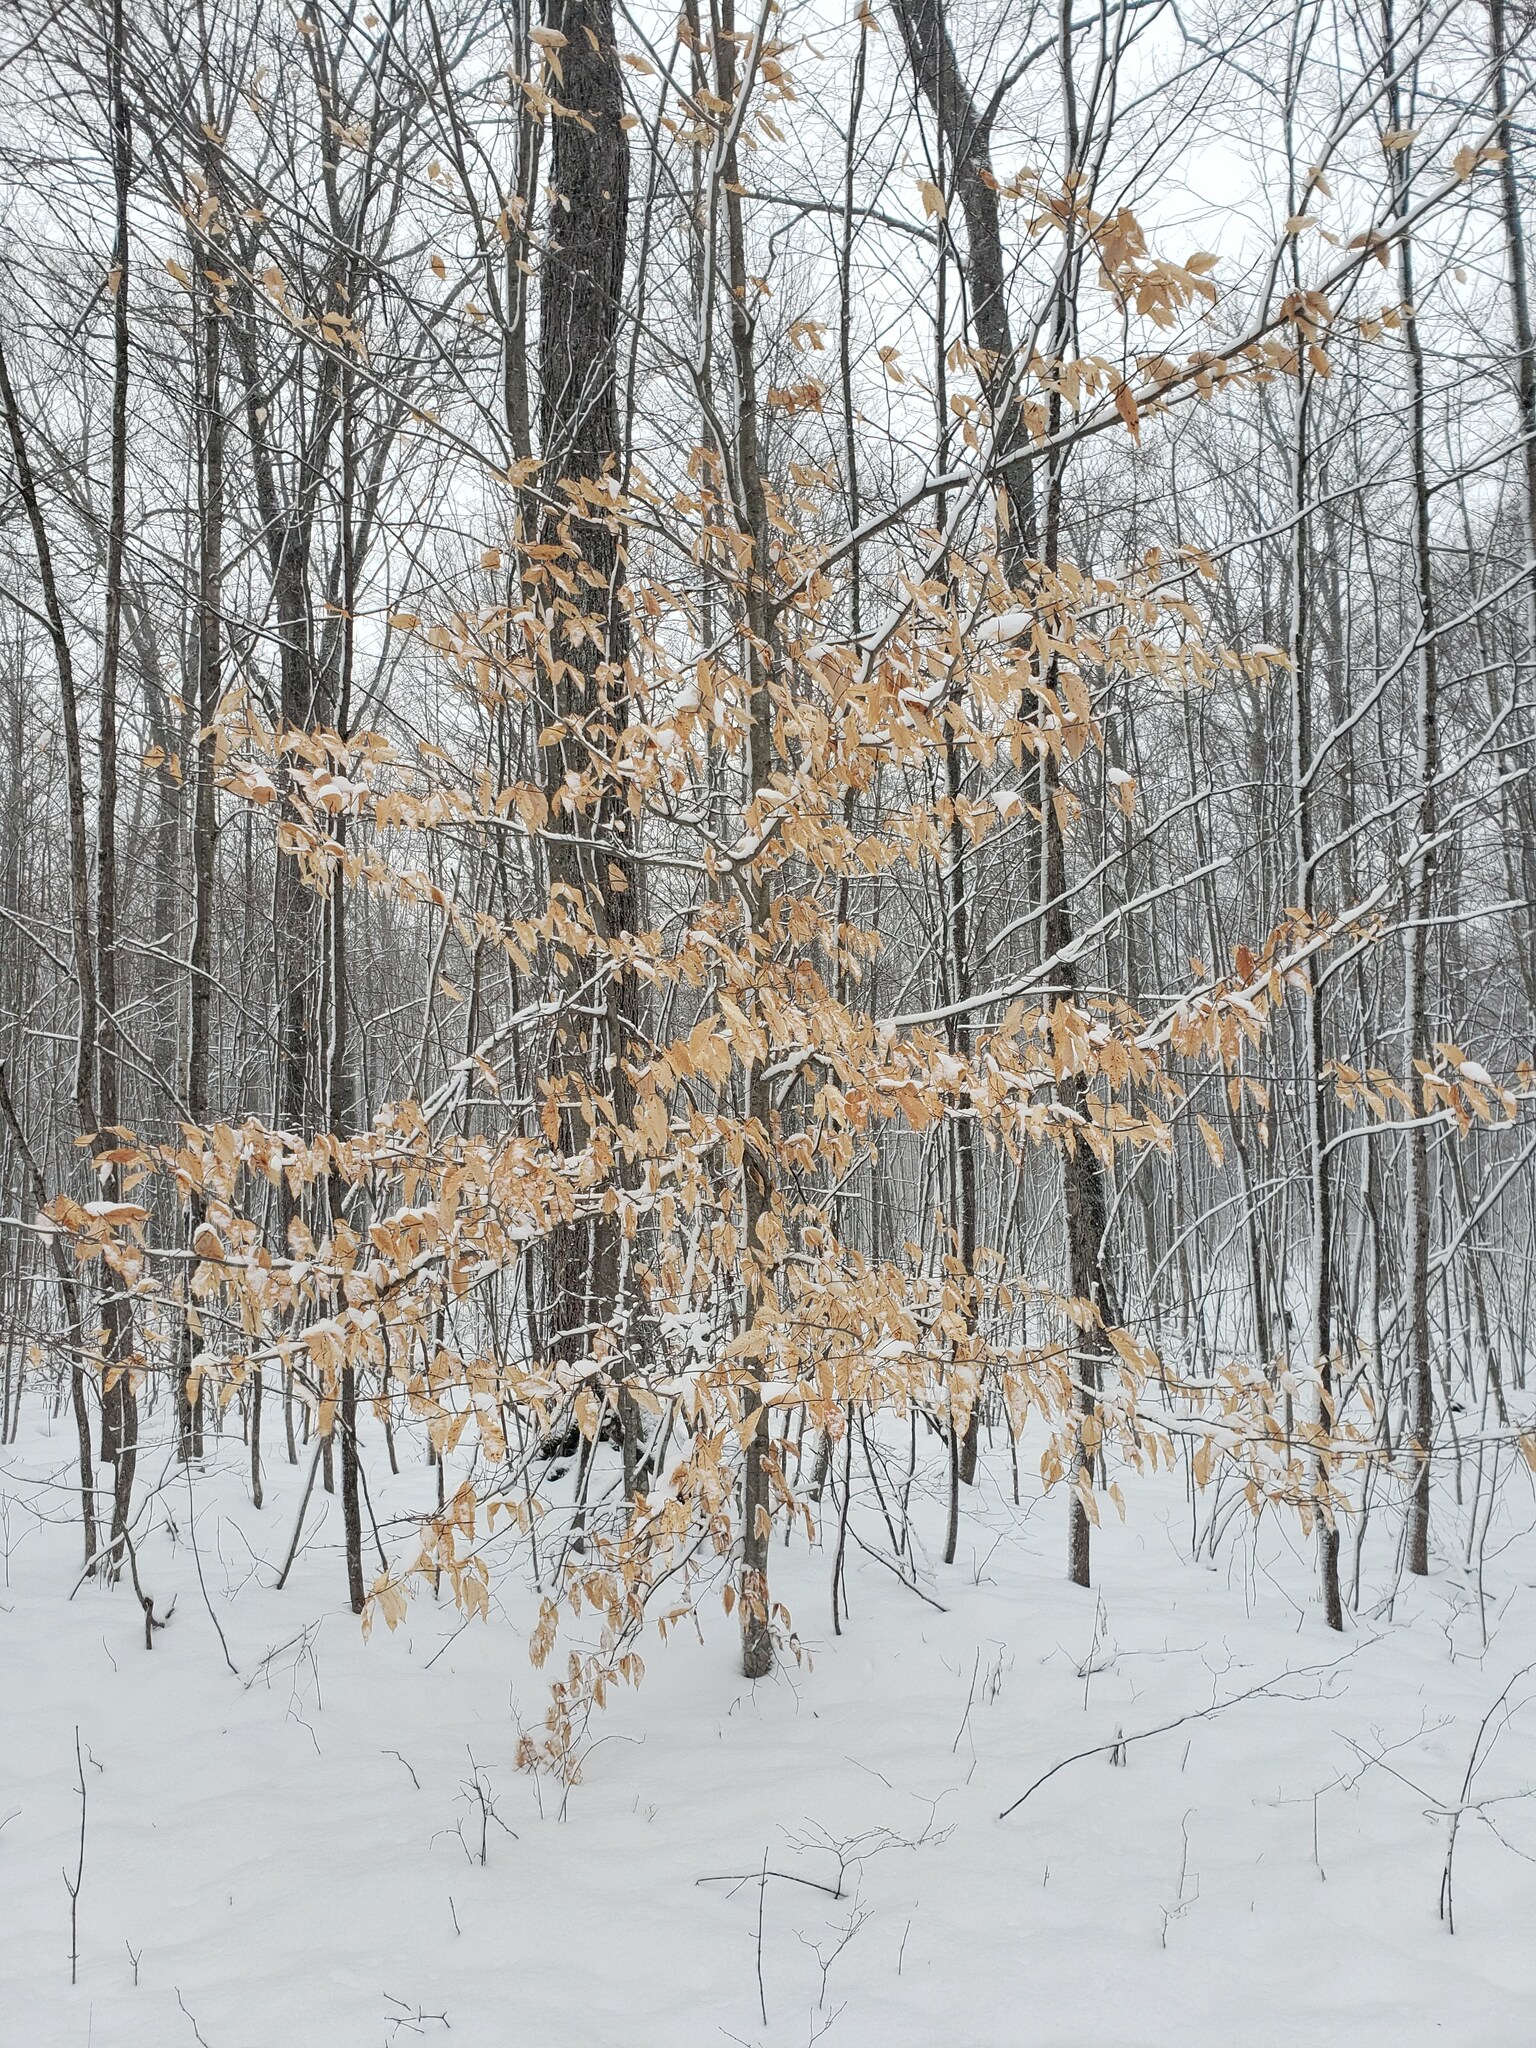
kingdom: Plantae
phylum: Tracheophyta
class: Magnoliopsida
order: Fagales
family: Fagaceae
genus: Fagus
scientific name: Fagus grandifolia
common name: American beech
